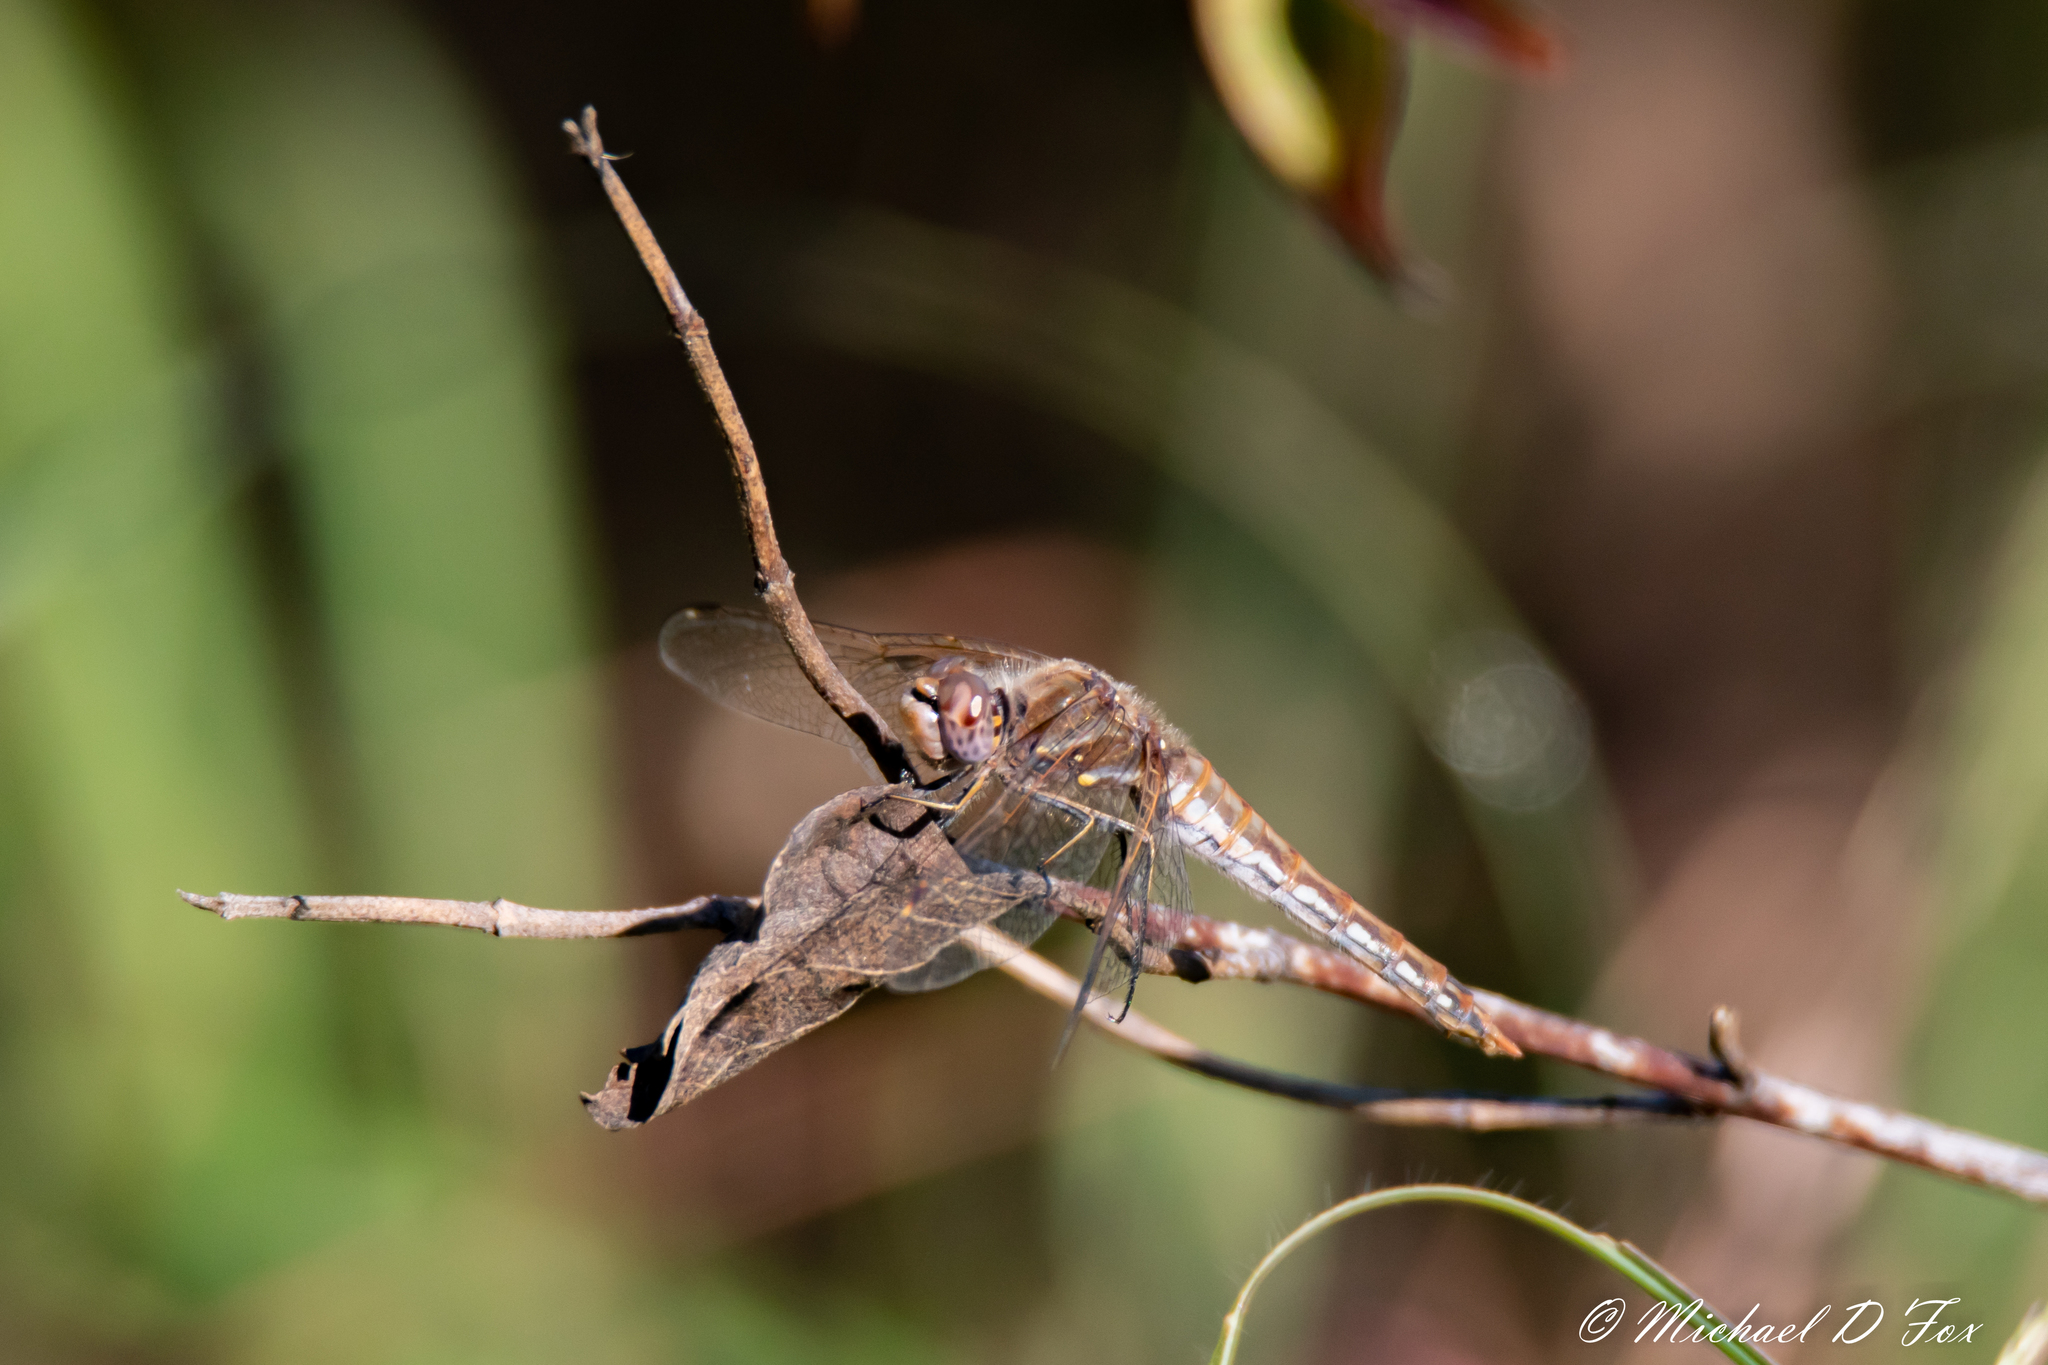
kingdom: Animalia
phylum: Arthropoda
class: Insecta
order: Odonata
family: Libellulidae
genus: Sympetrum
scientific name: Sympetrum corruptum
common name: Variegated meadowhawk
